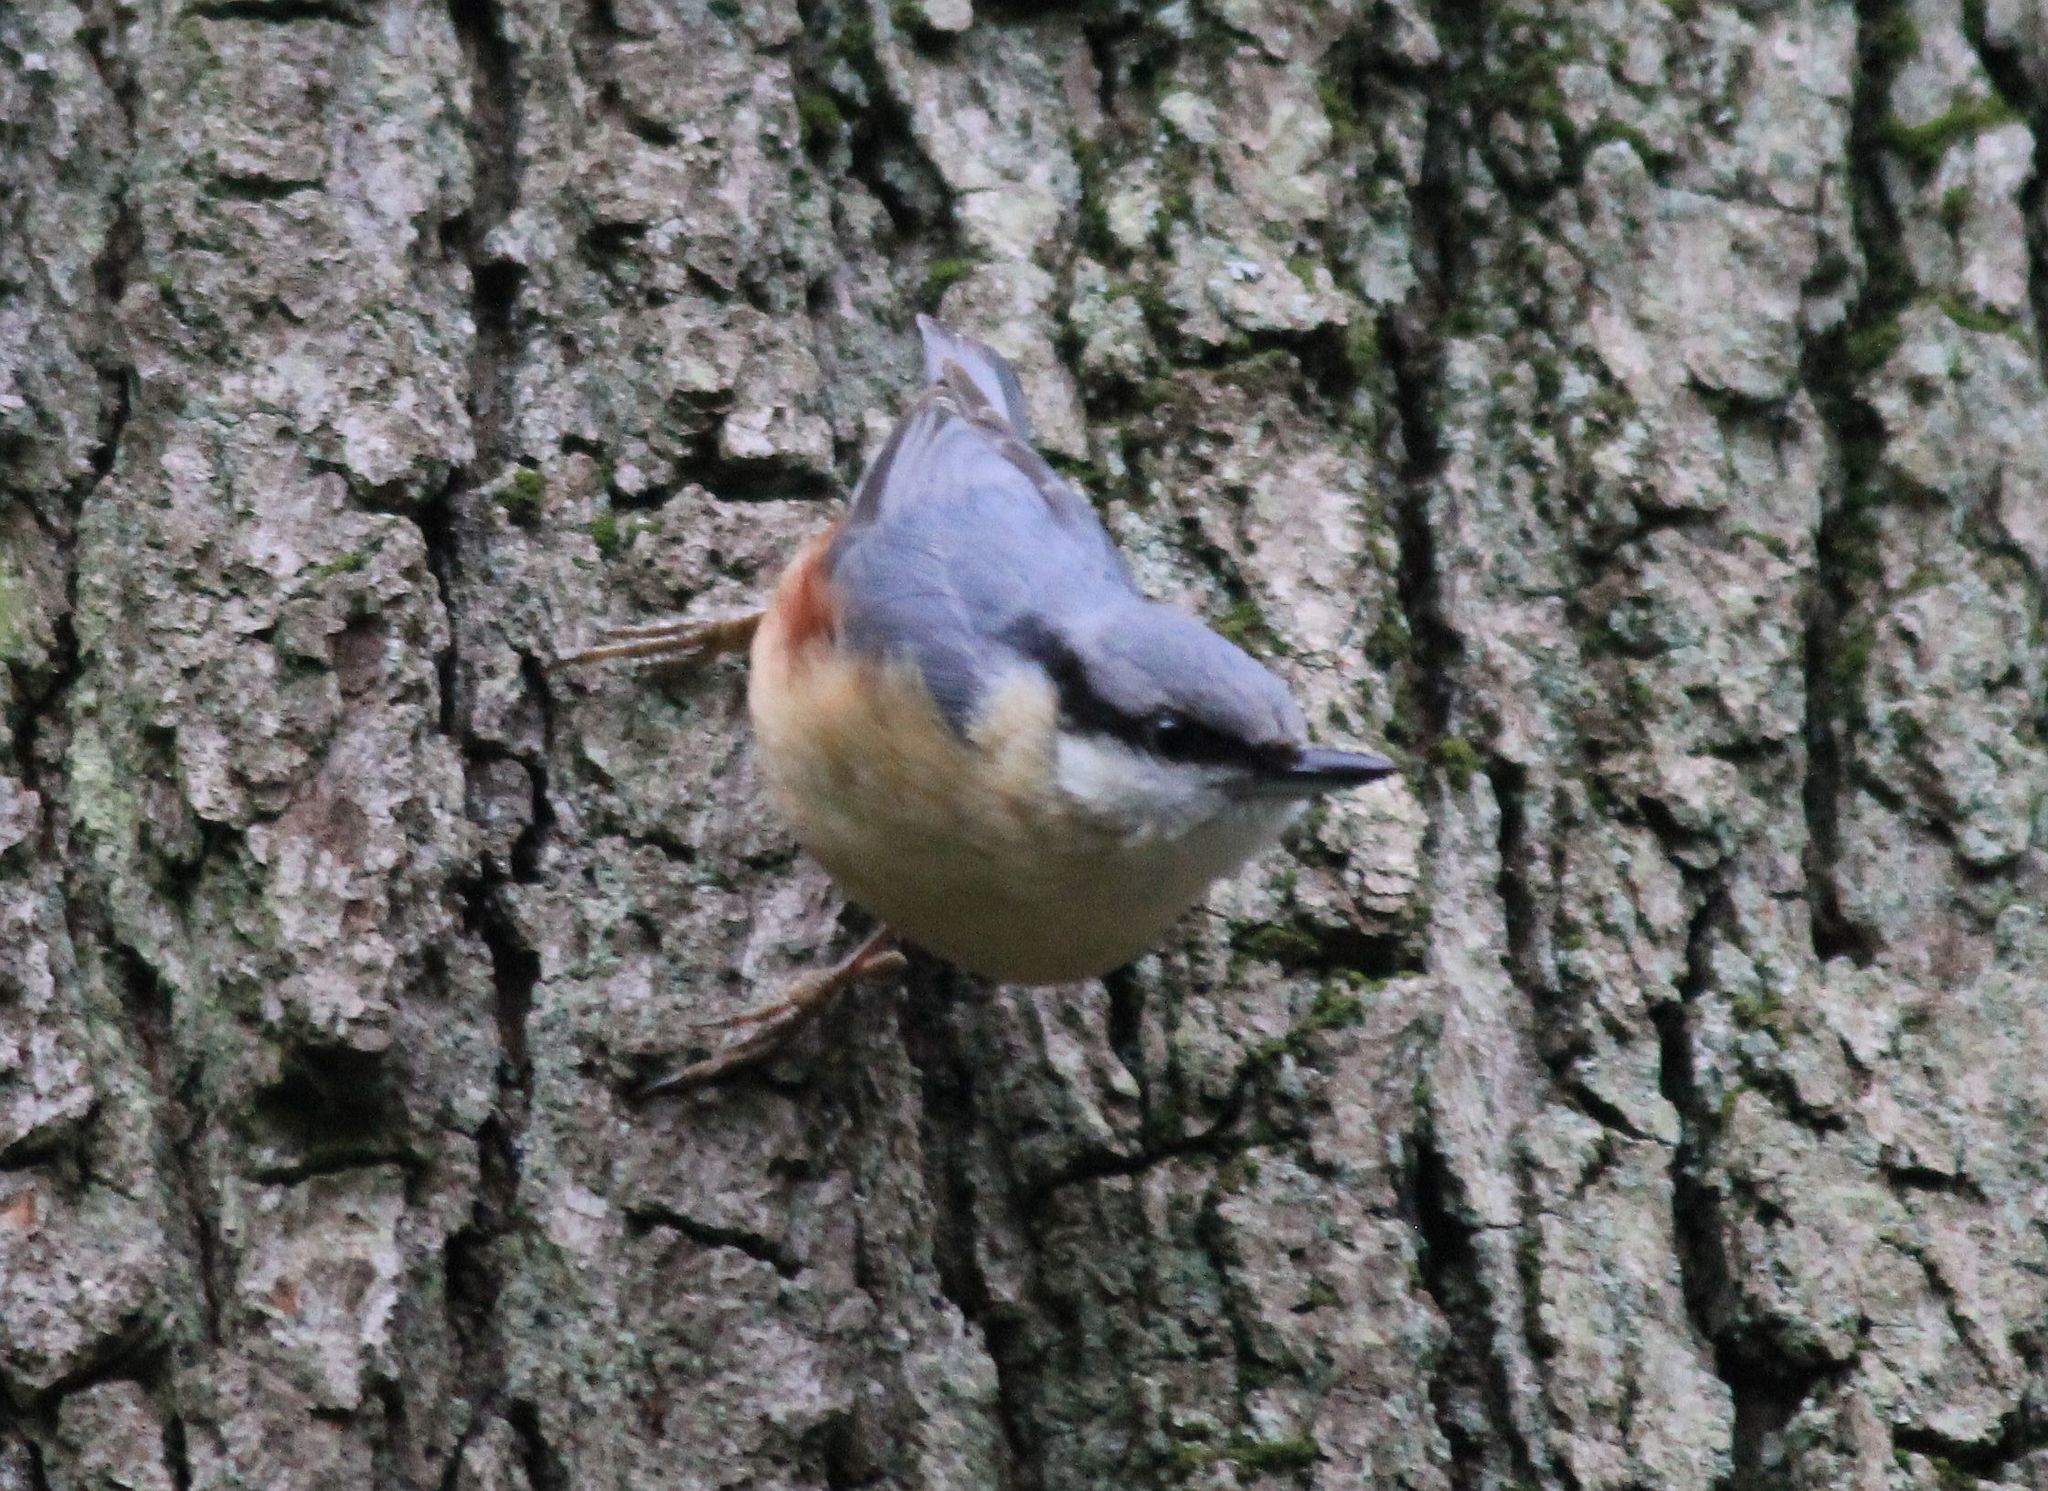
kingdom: Animalia
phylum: Chordata
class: Aves
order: Passeriformes
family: Sittidae
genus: Sitta
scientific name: Sitta europaea
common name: Eurasian nuthatch
